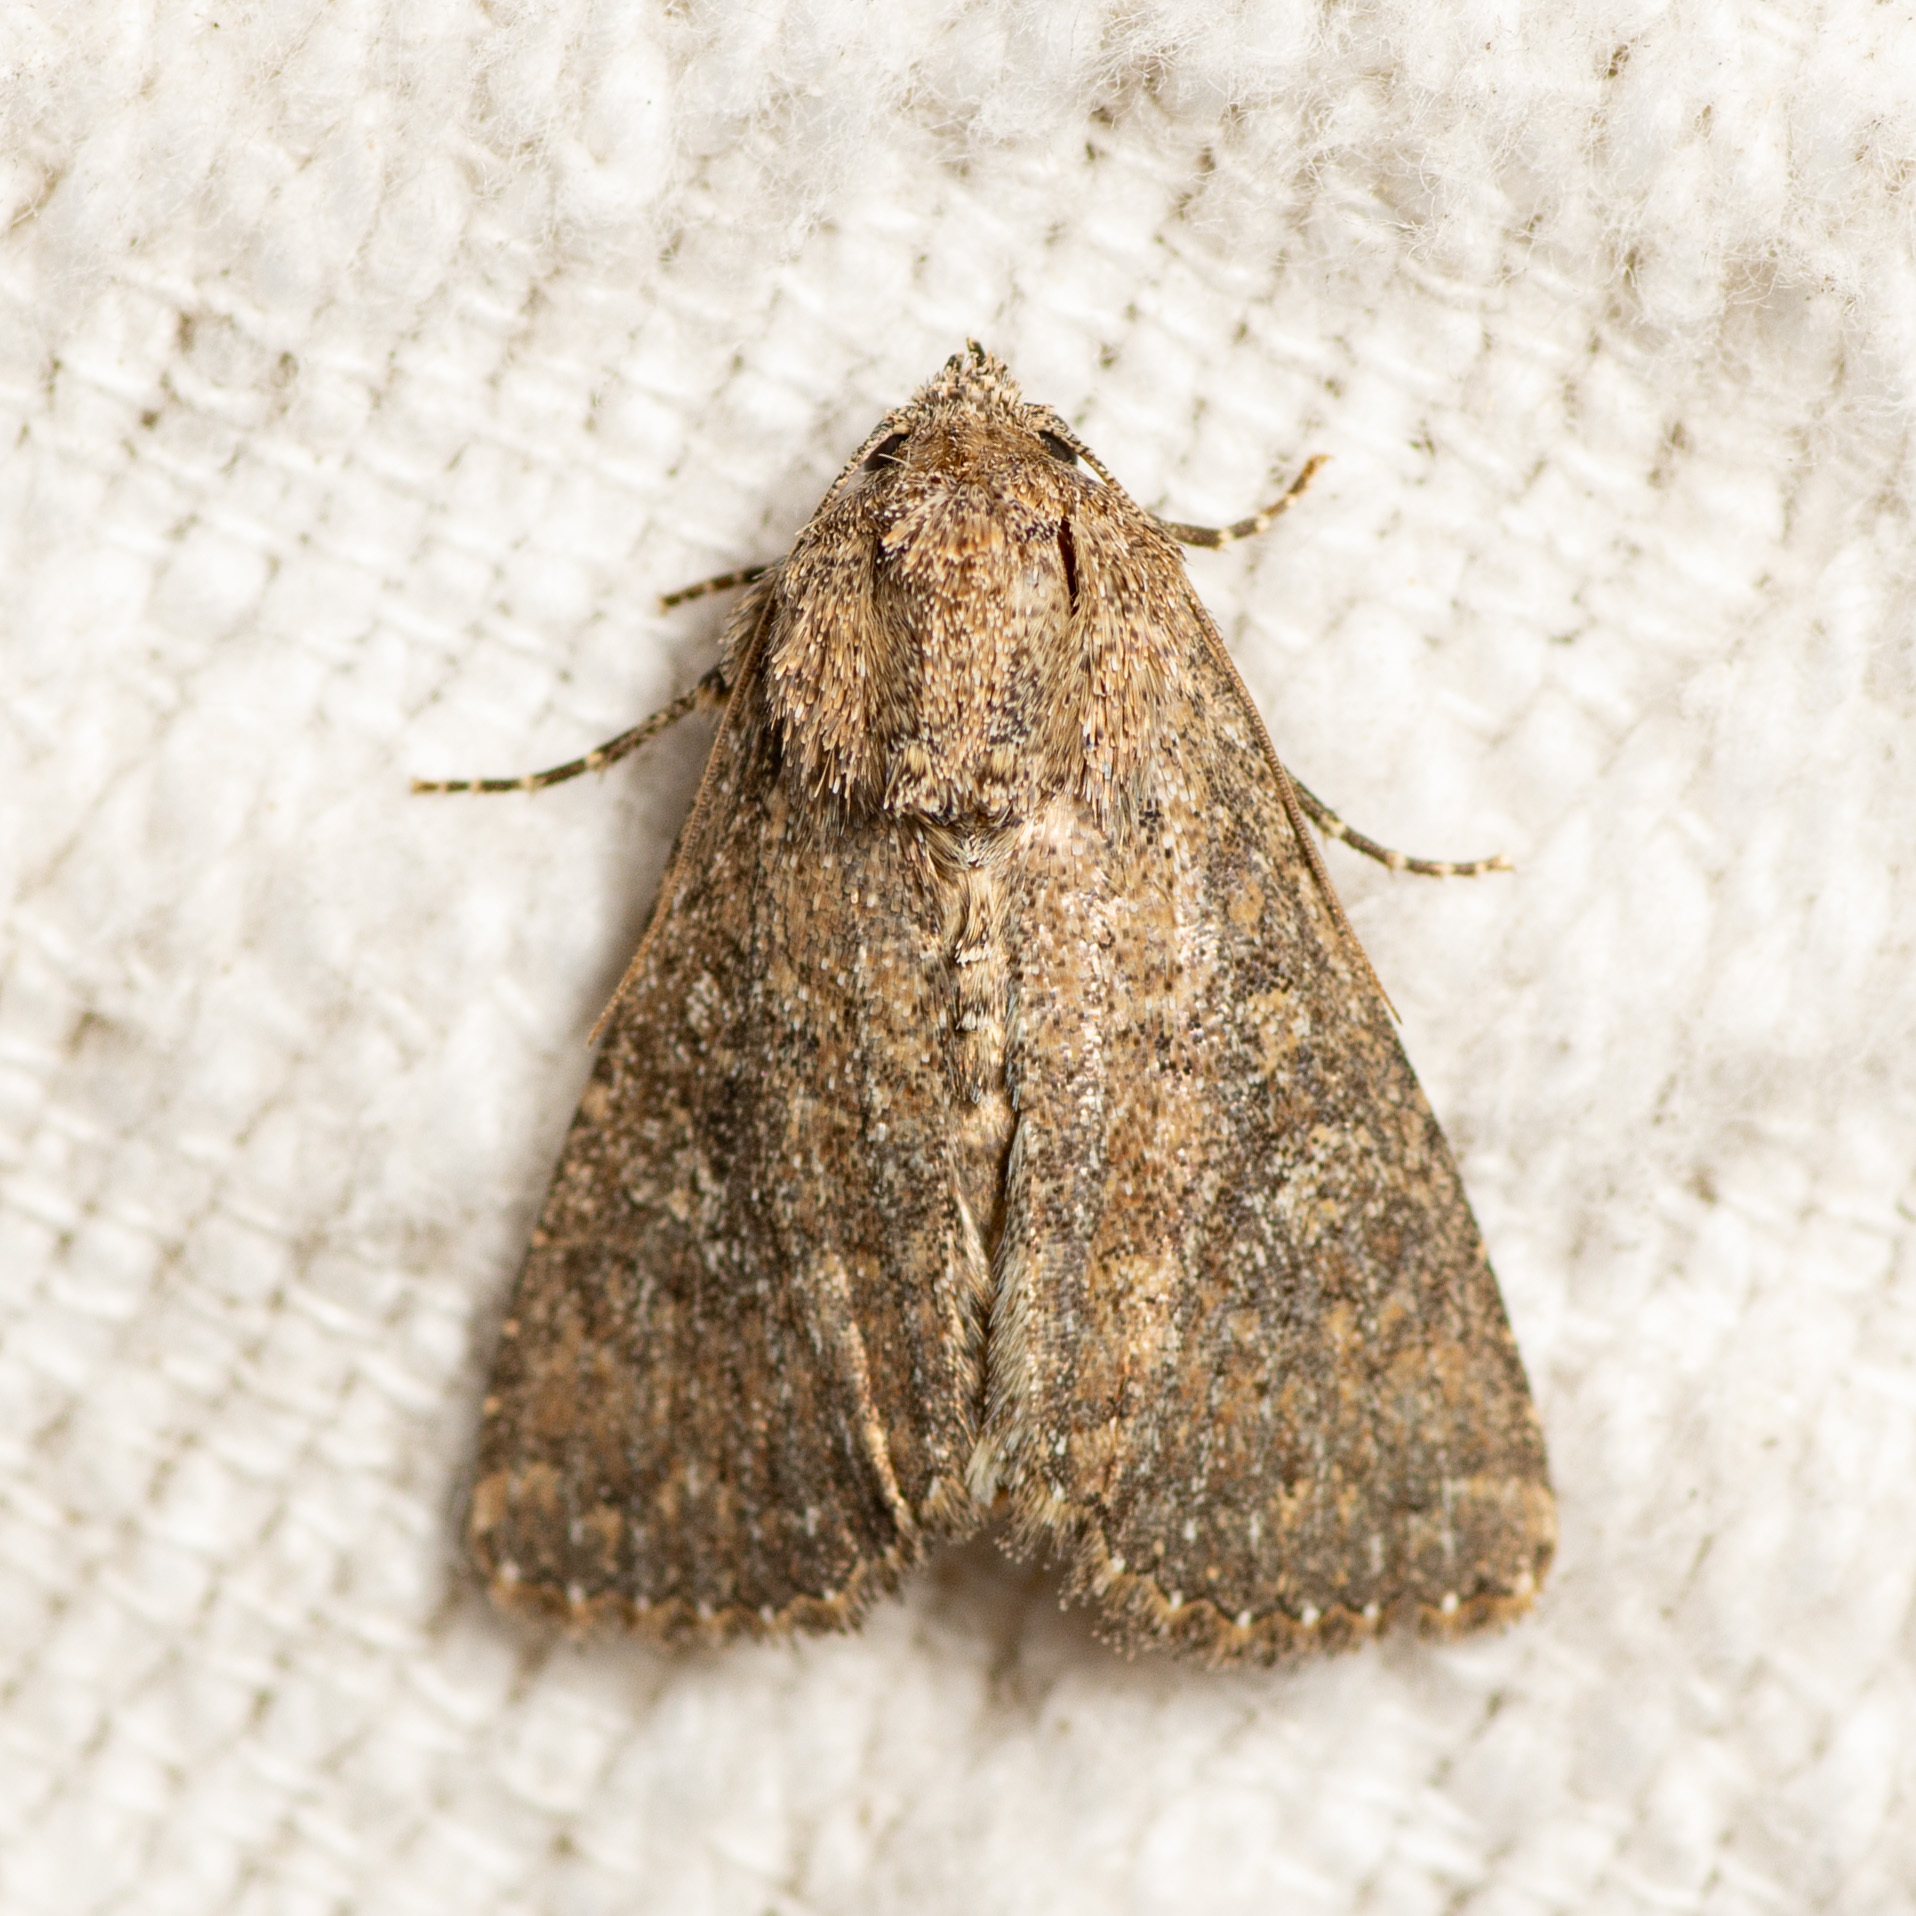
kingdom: Animalia
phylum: Arthropoda
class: Insecta
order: Lepidoptera
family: Noctuidae
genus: Condica
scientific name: Condica sutor
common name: Cobbler moth
